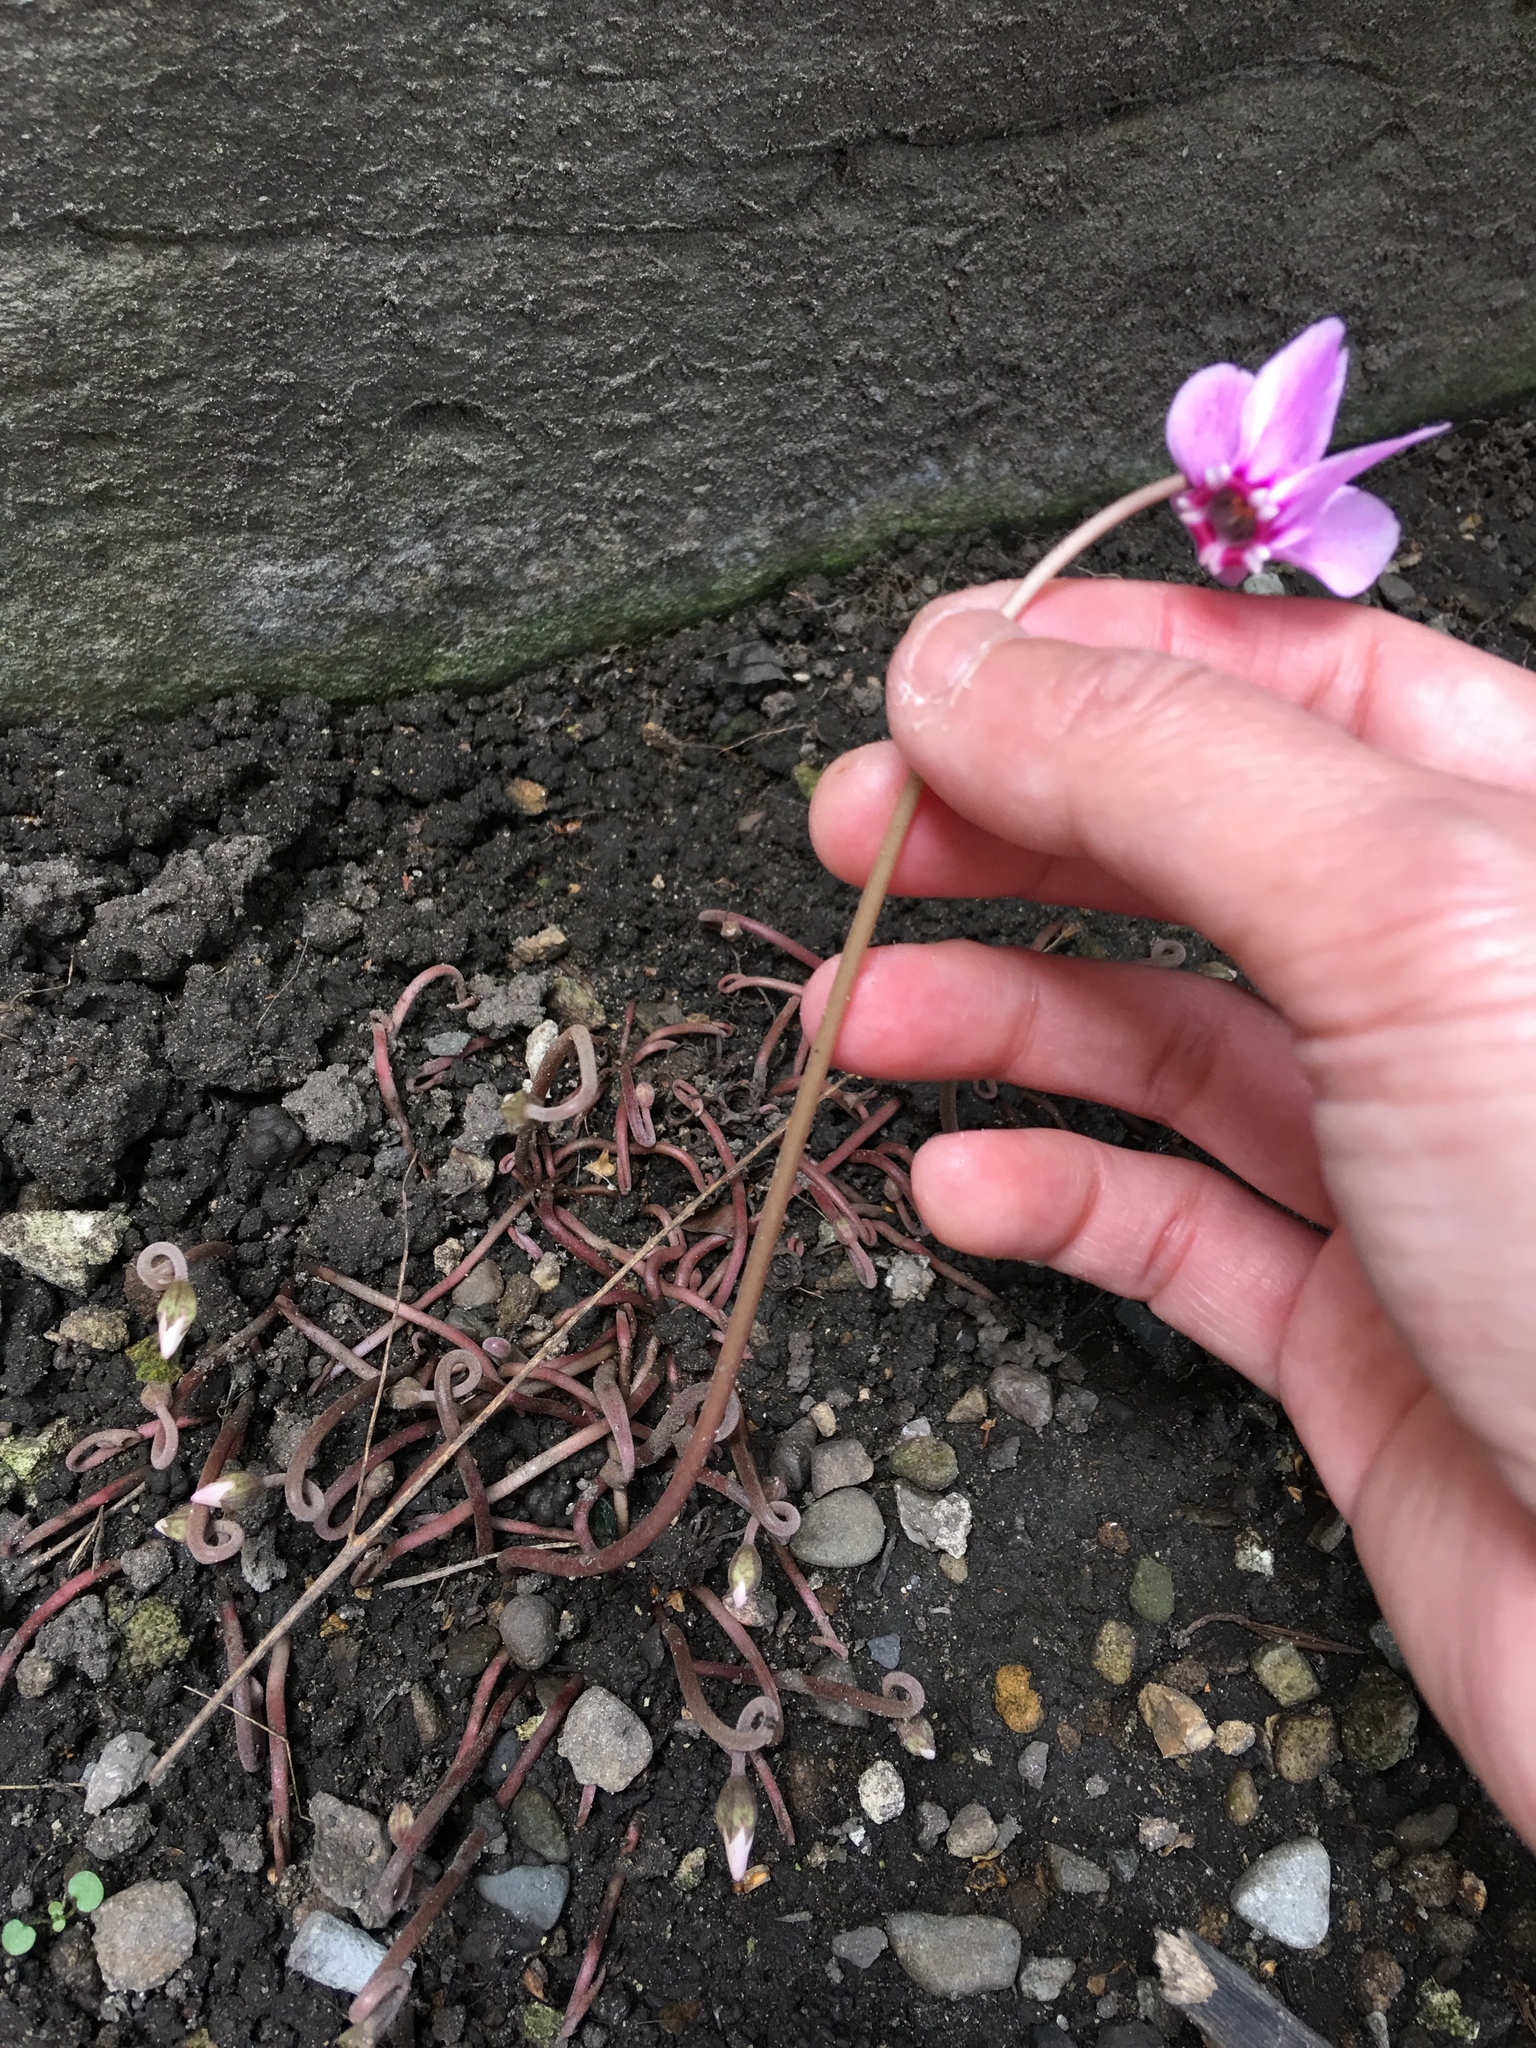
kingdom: Plantae
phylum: Tracheophyta
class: Magnoliopsida
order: Ericales
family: Primulaceae
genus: Cyclamen
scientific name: Cyclamen hederifolium
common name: Sowbread
